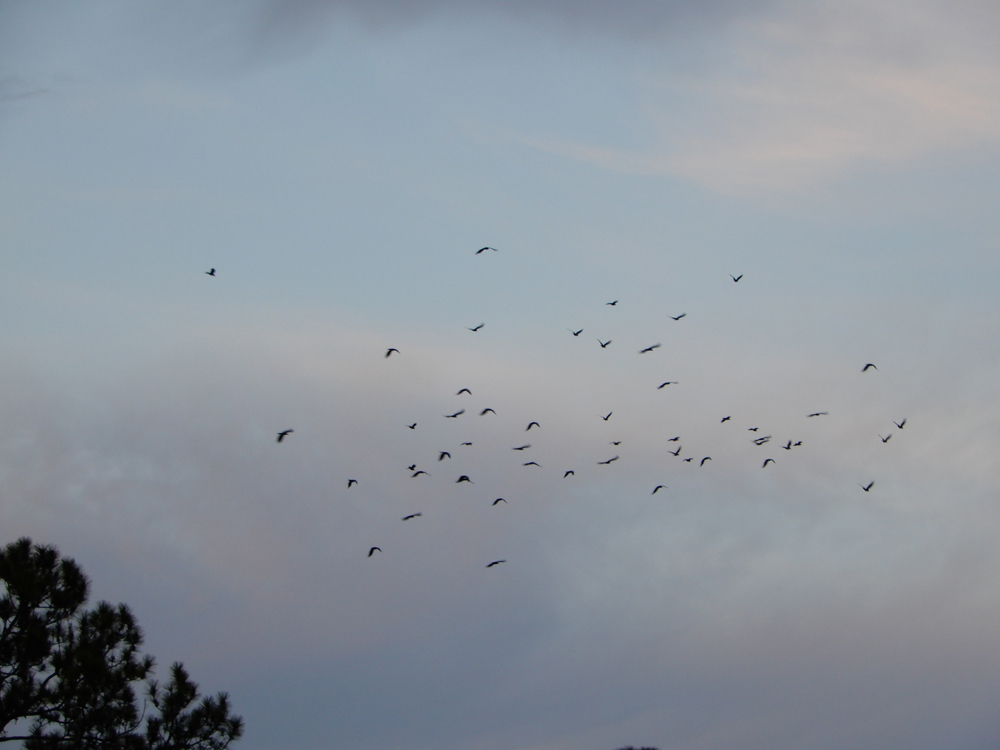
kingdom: Animalia
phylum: Chordata
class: Aves
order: Passeriformes
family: Corvidae
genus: Corvus
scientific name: Corvus ossifragus
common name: Fish crow
